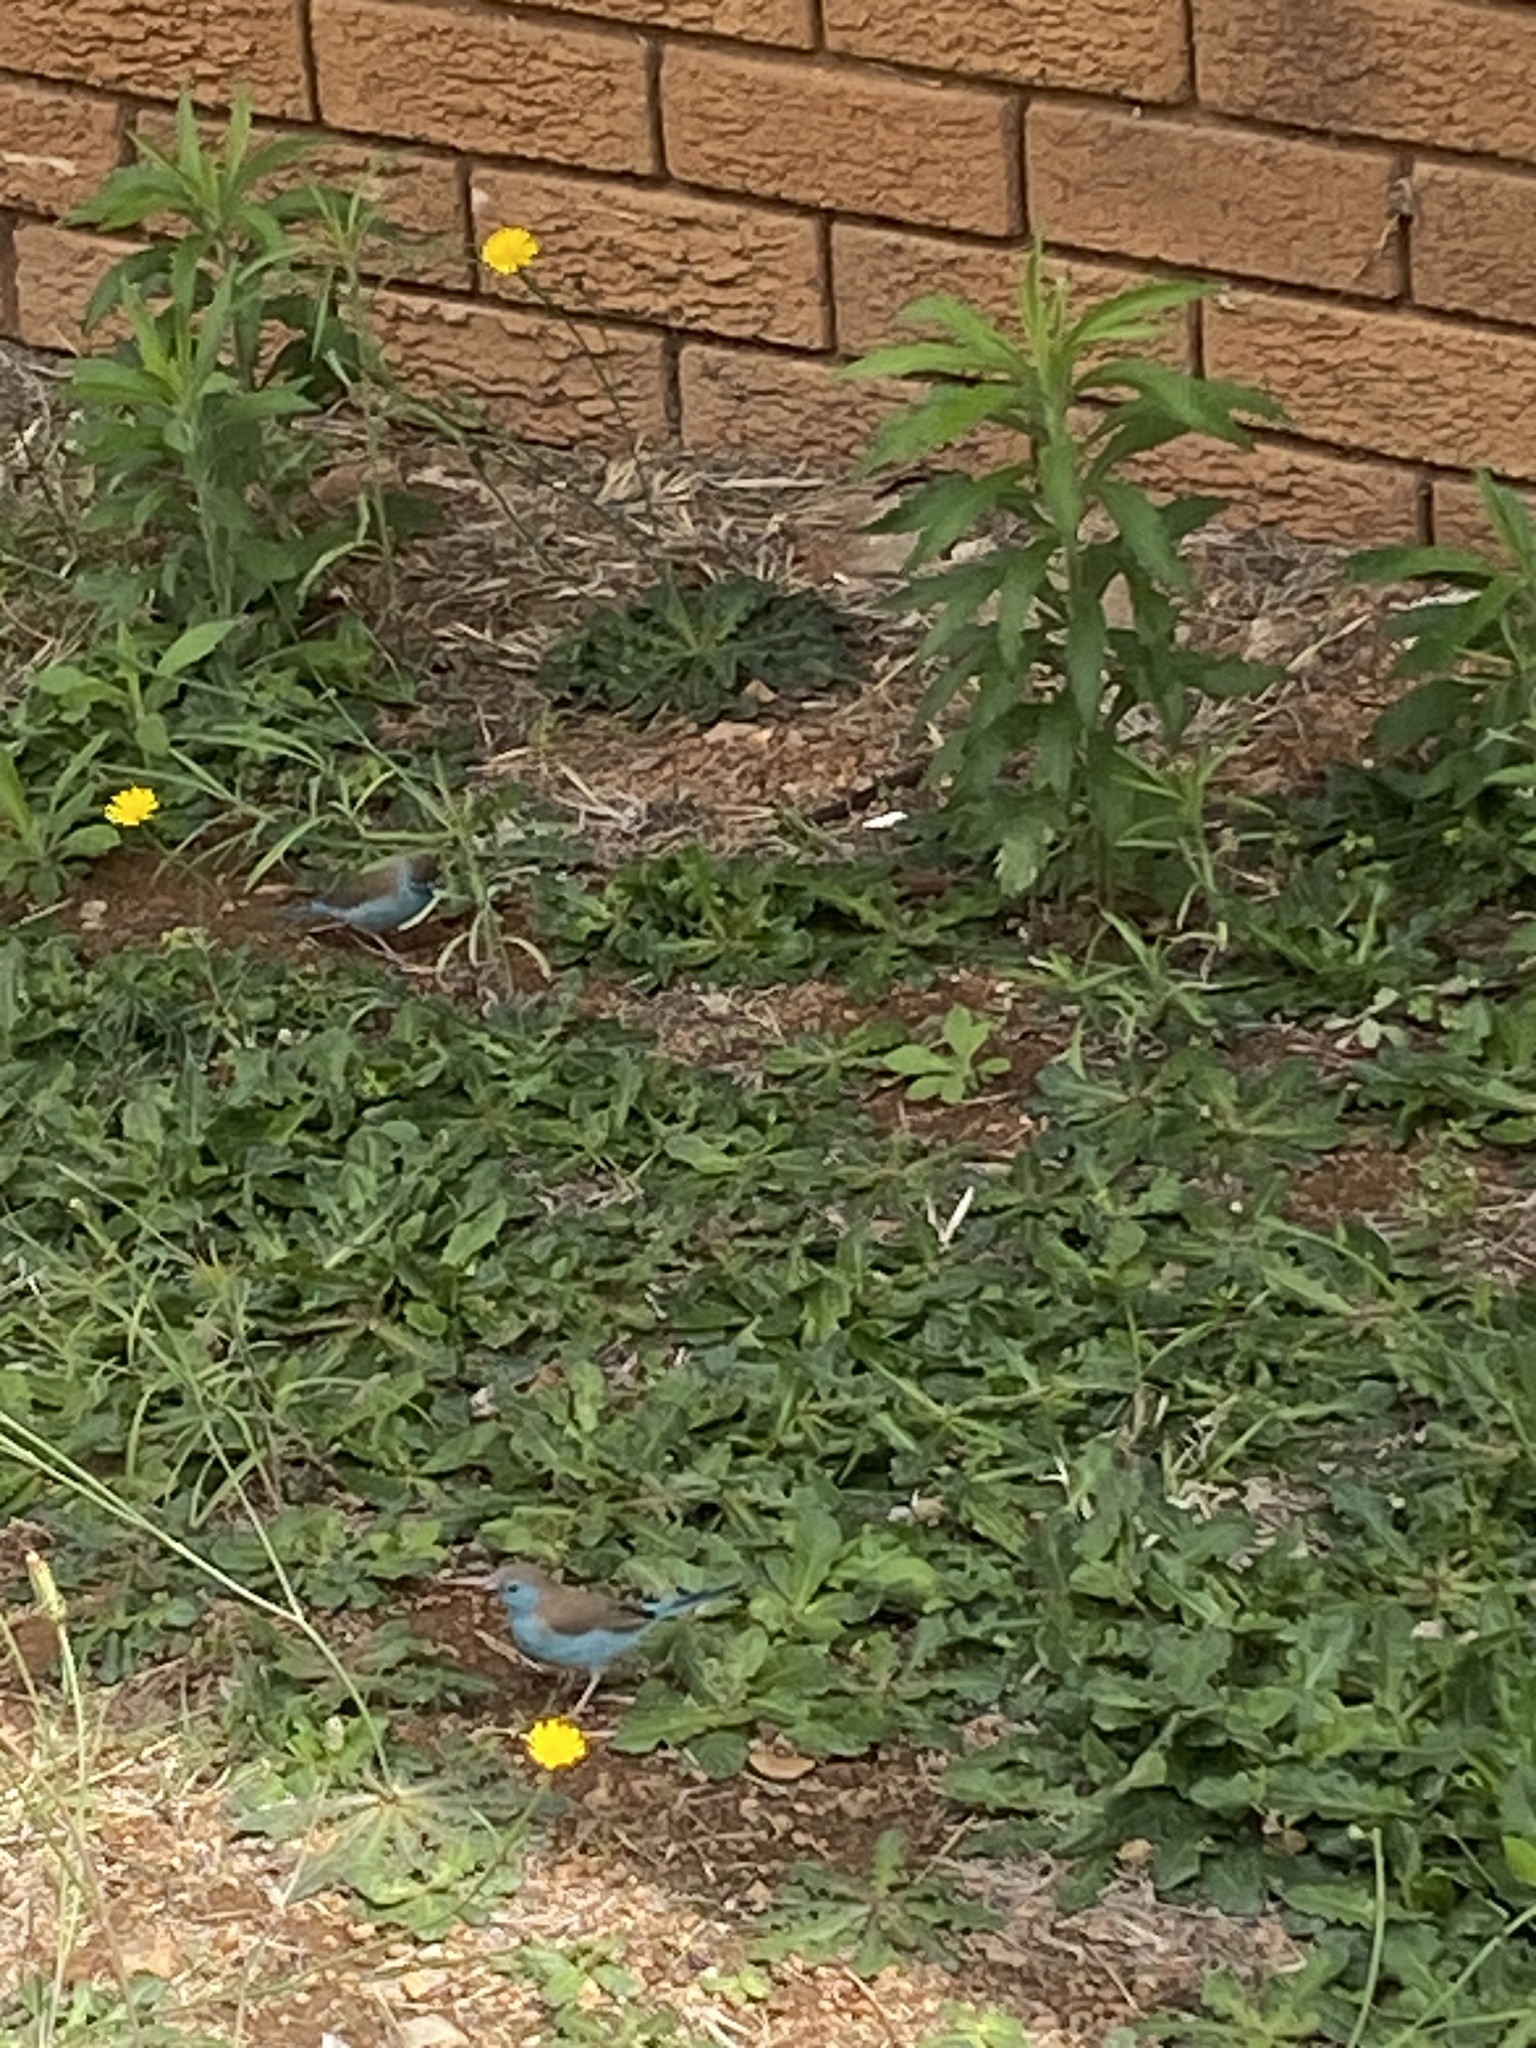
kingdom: Animalia
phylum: Chordata
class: Aves
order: Passeriformes
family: Estrildidae
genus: Uraeginthus
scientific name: Uraeginthus angolensis
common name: Blue waxbill
